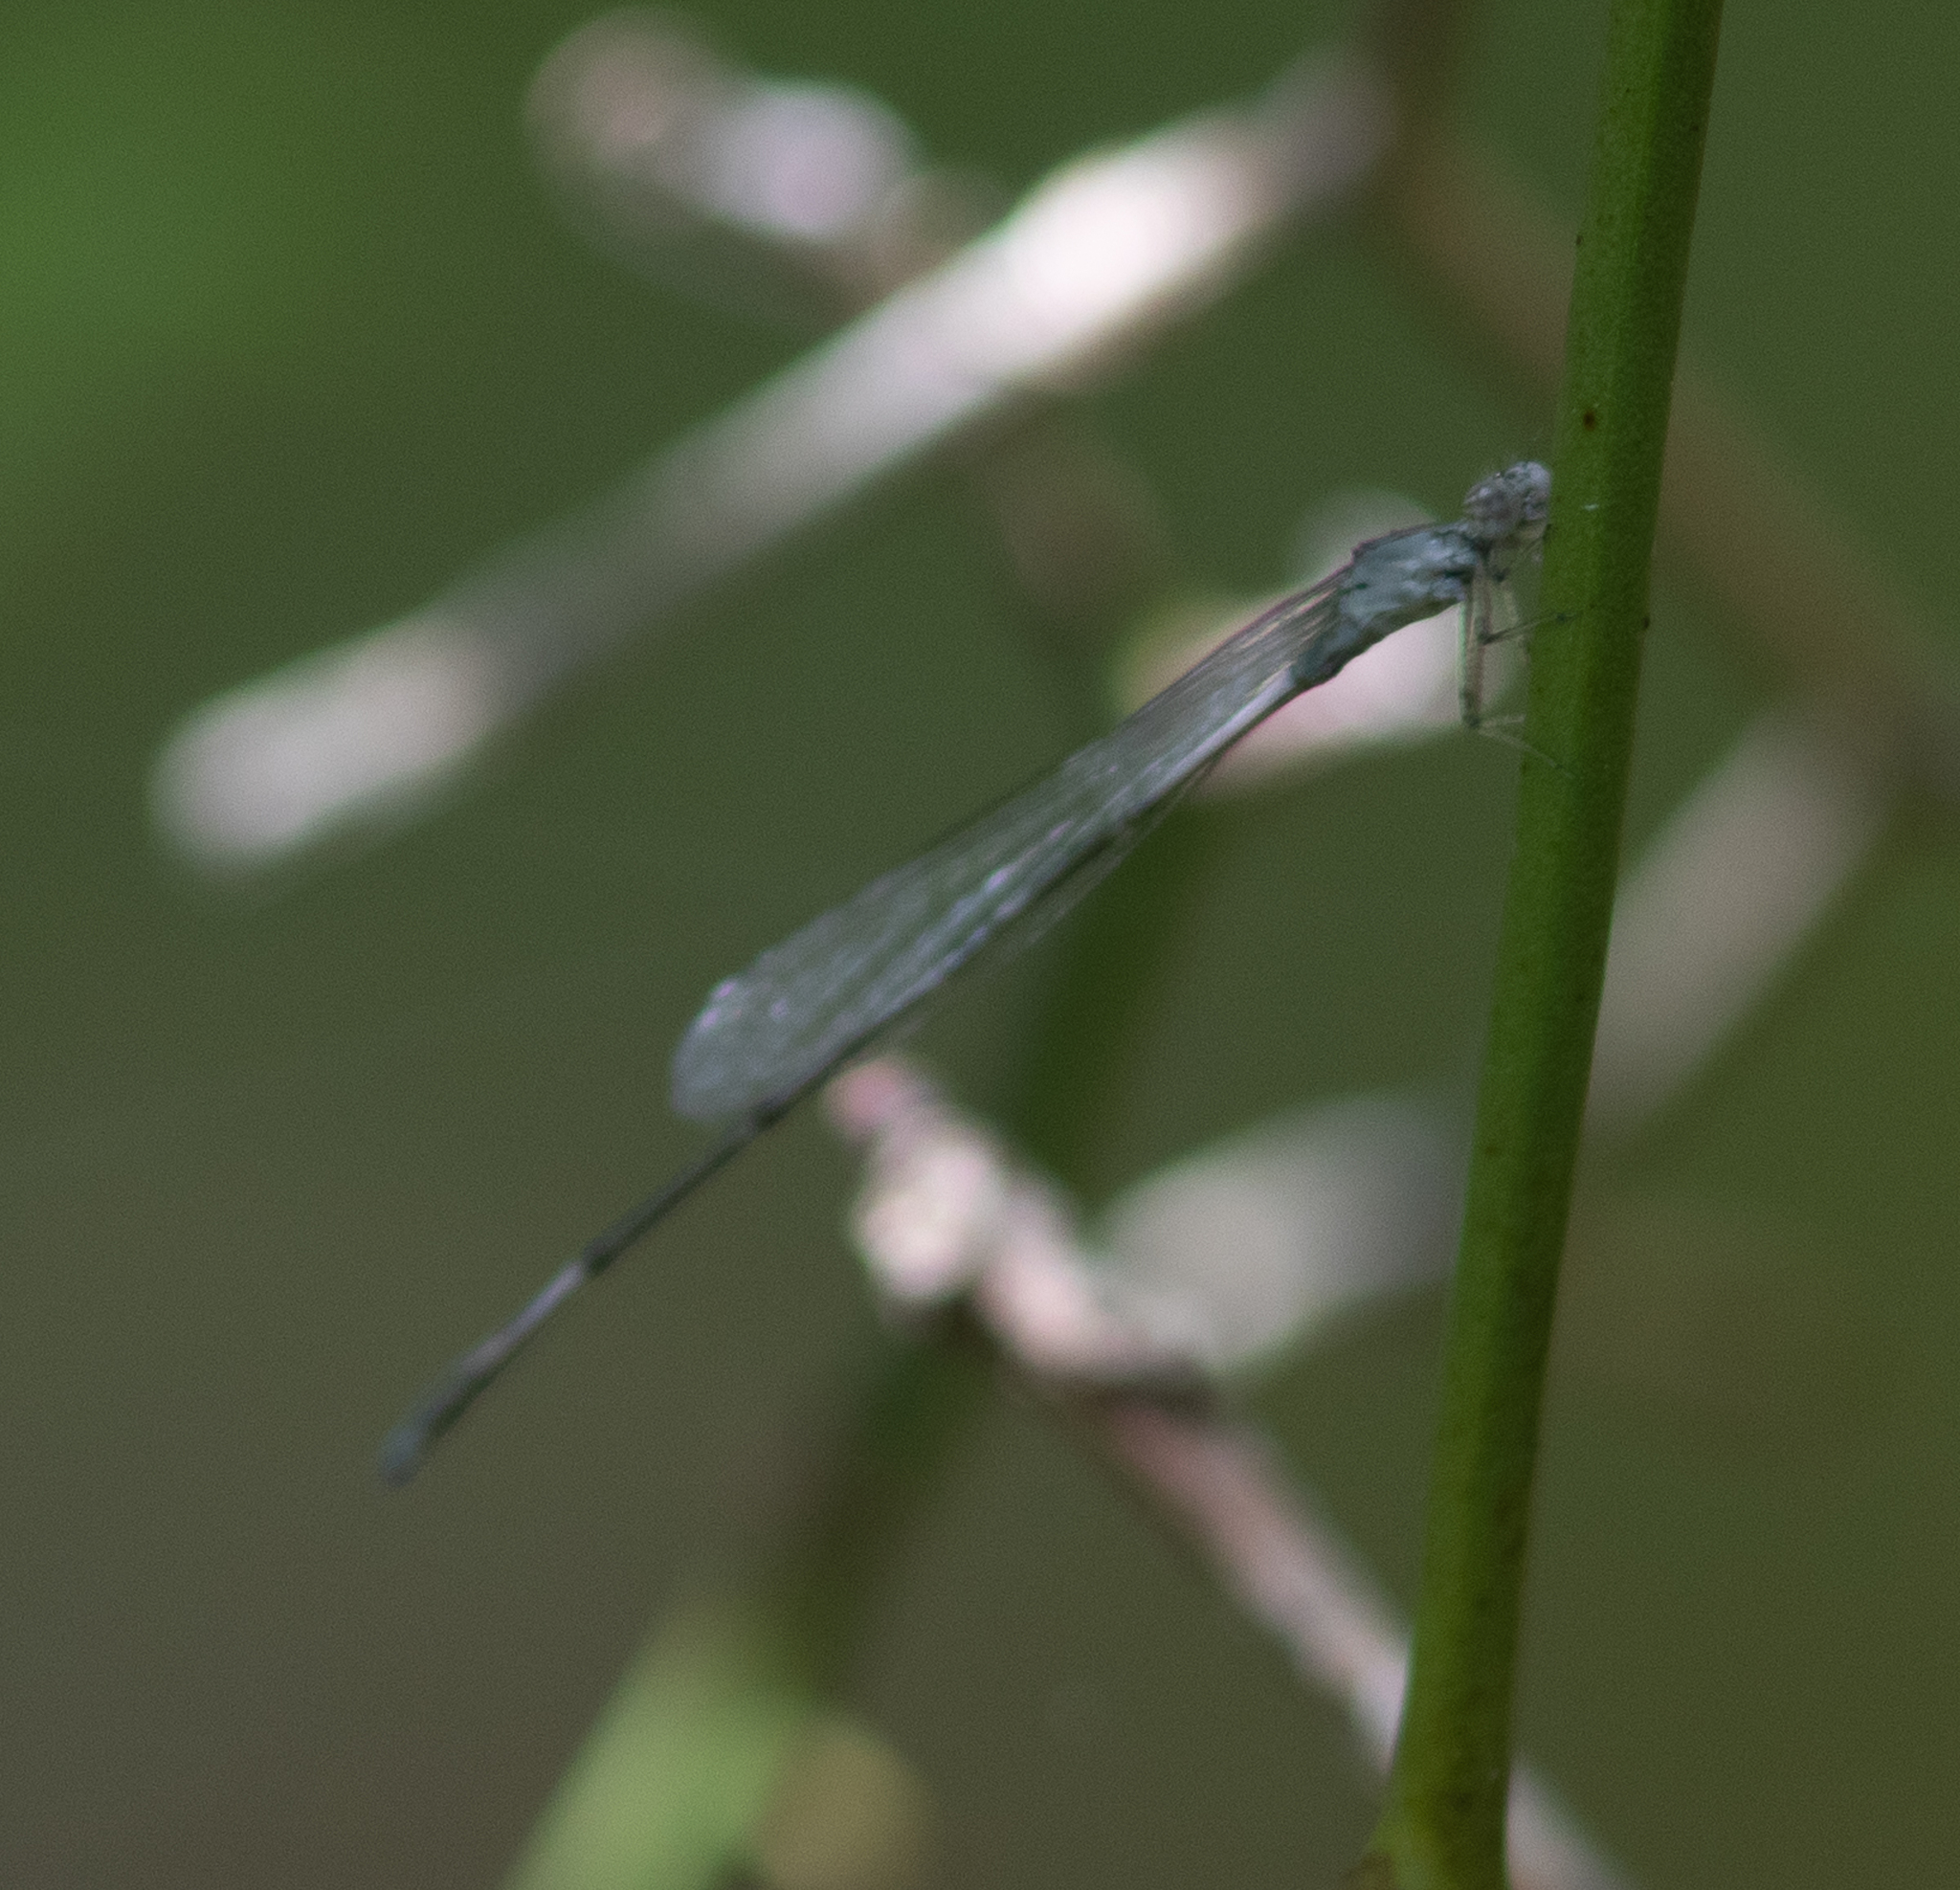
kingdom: Animalia
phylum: Arthropoda
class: Insecta
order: Odonata
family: Coenagrionidae
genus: Enallagma
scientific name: Enallagma daeckii
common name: Attenuated bluet
